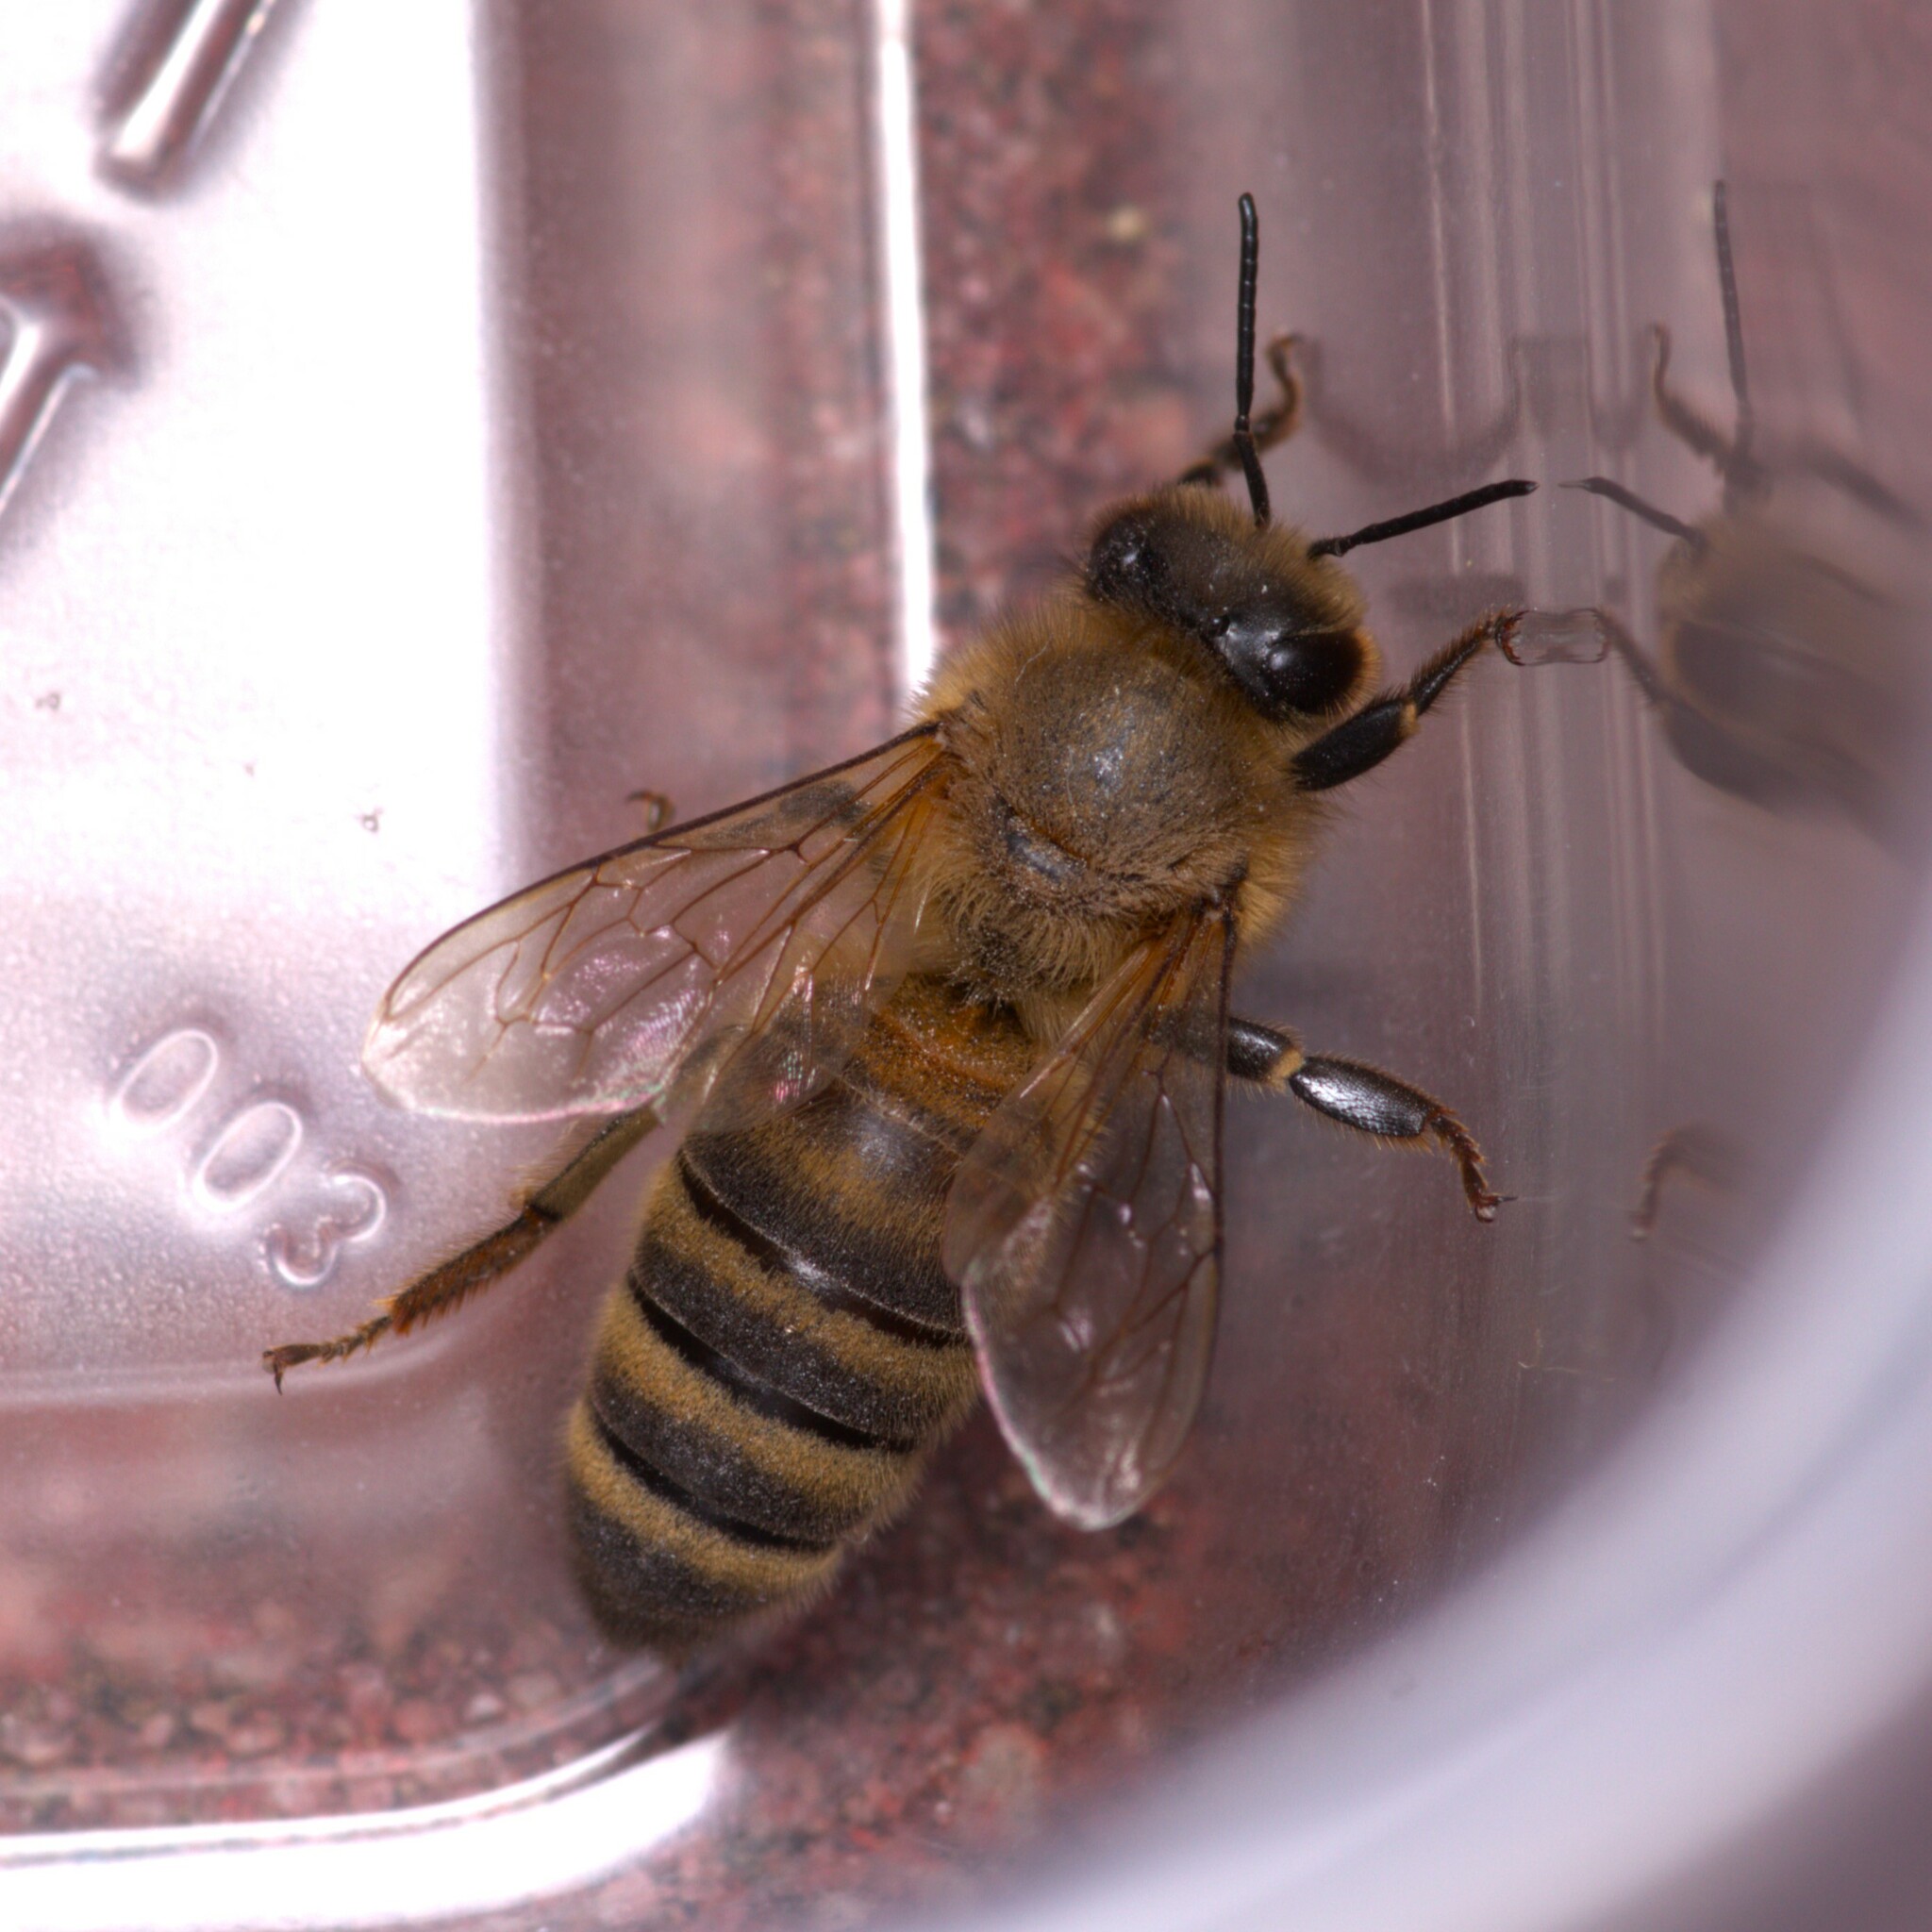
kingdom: Animalia
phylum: Arthropoda
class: Insecta
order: Hymenoptera
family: Apidae
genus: Apis
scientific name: Apis mellifera
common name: Honey bee
